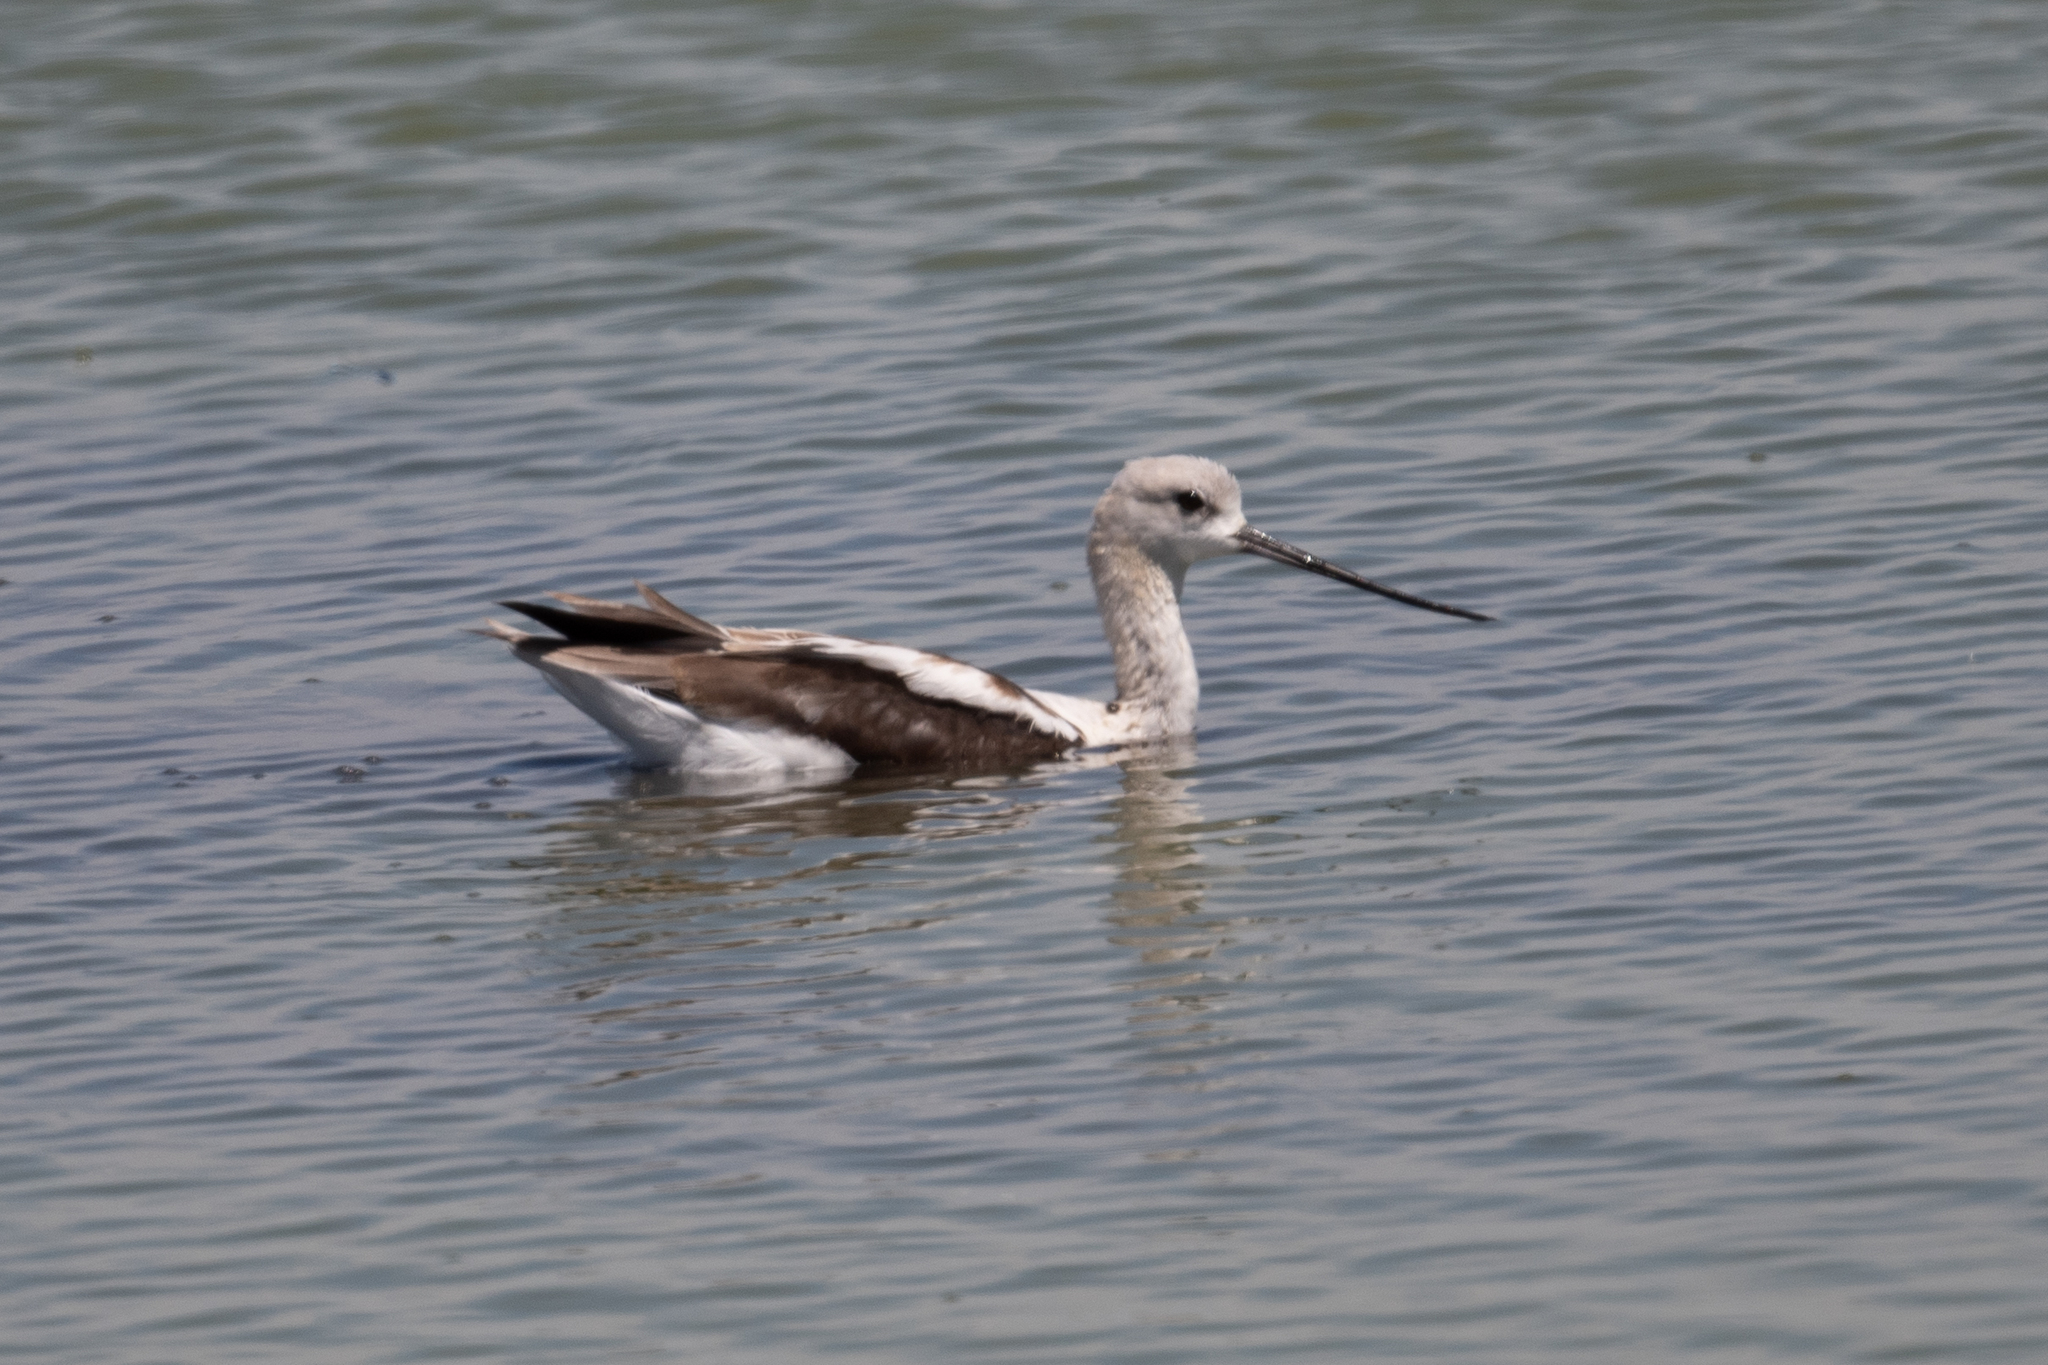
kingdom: Animalia
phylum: Chordata
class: Aves
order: Charadriiformes
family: Recurvirostridae
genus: Recurvirostra
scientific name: Recurvirostra americana
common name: American avocet
